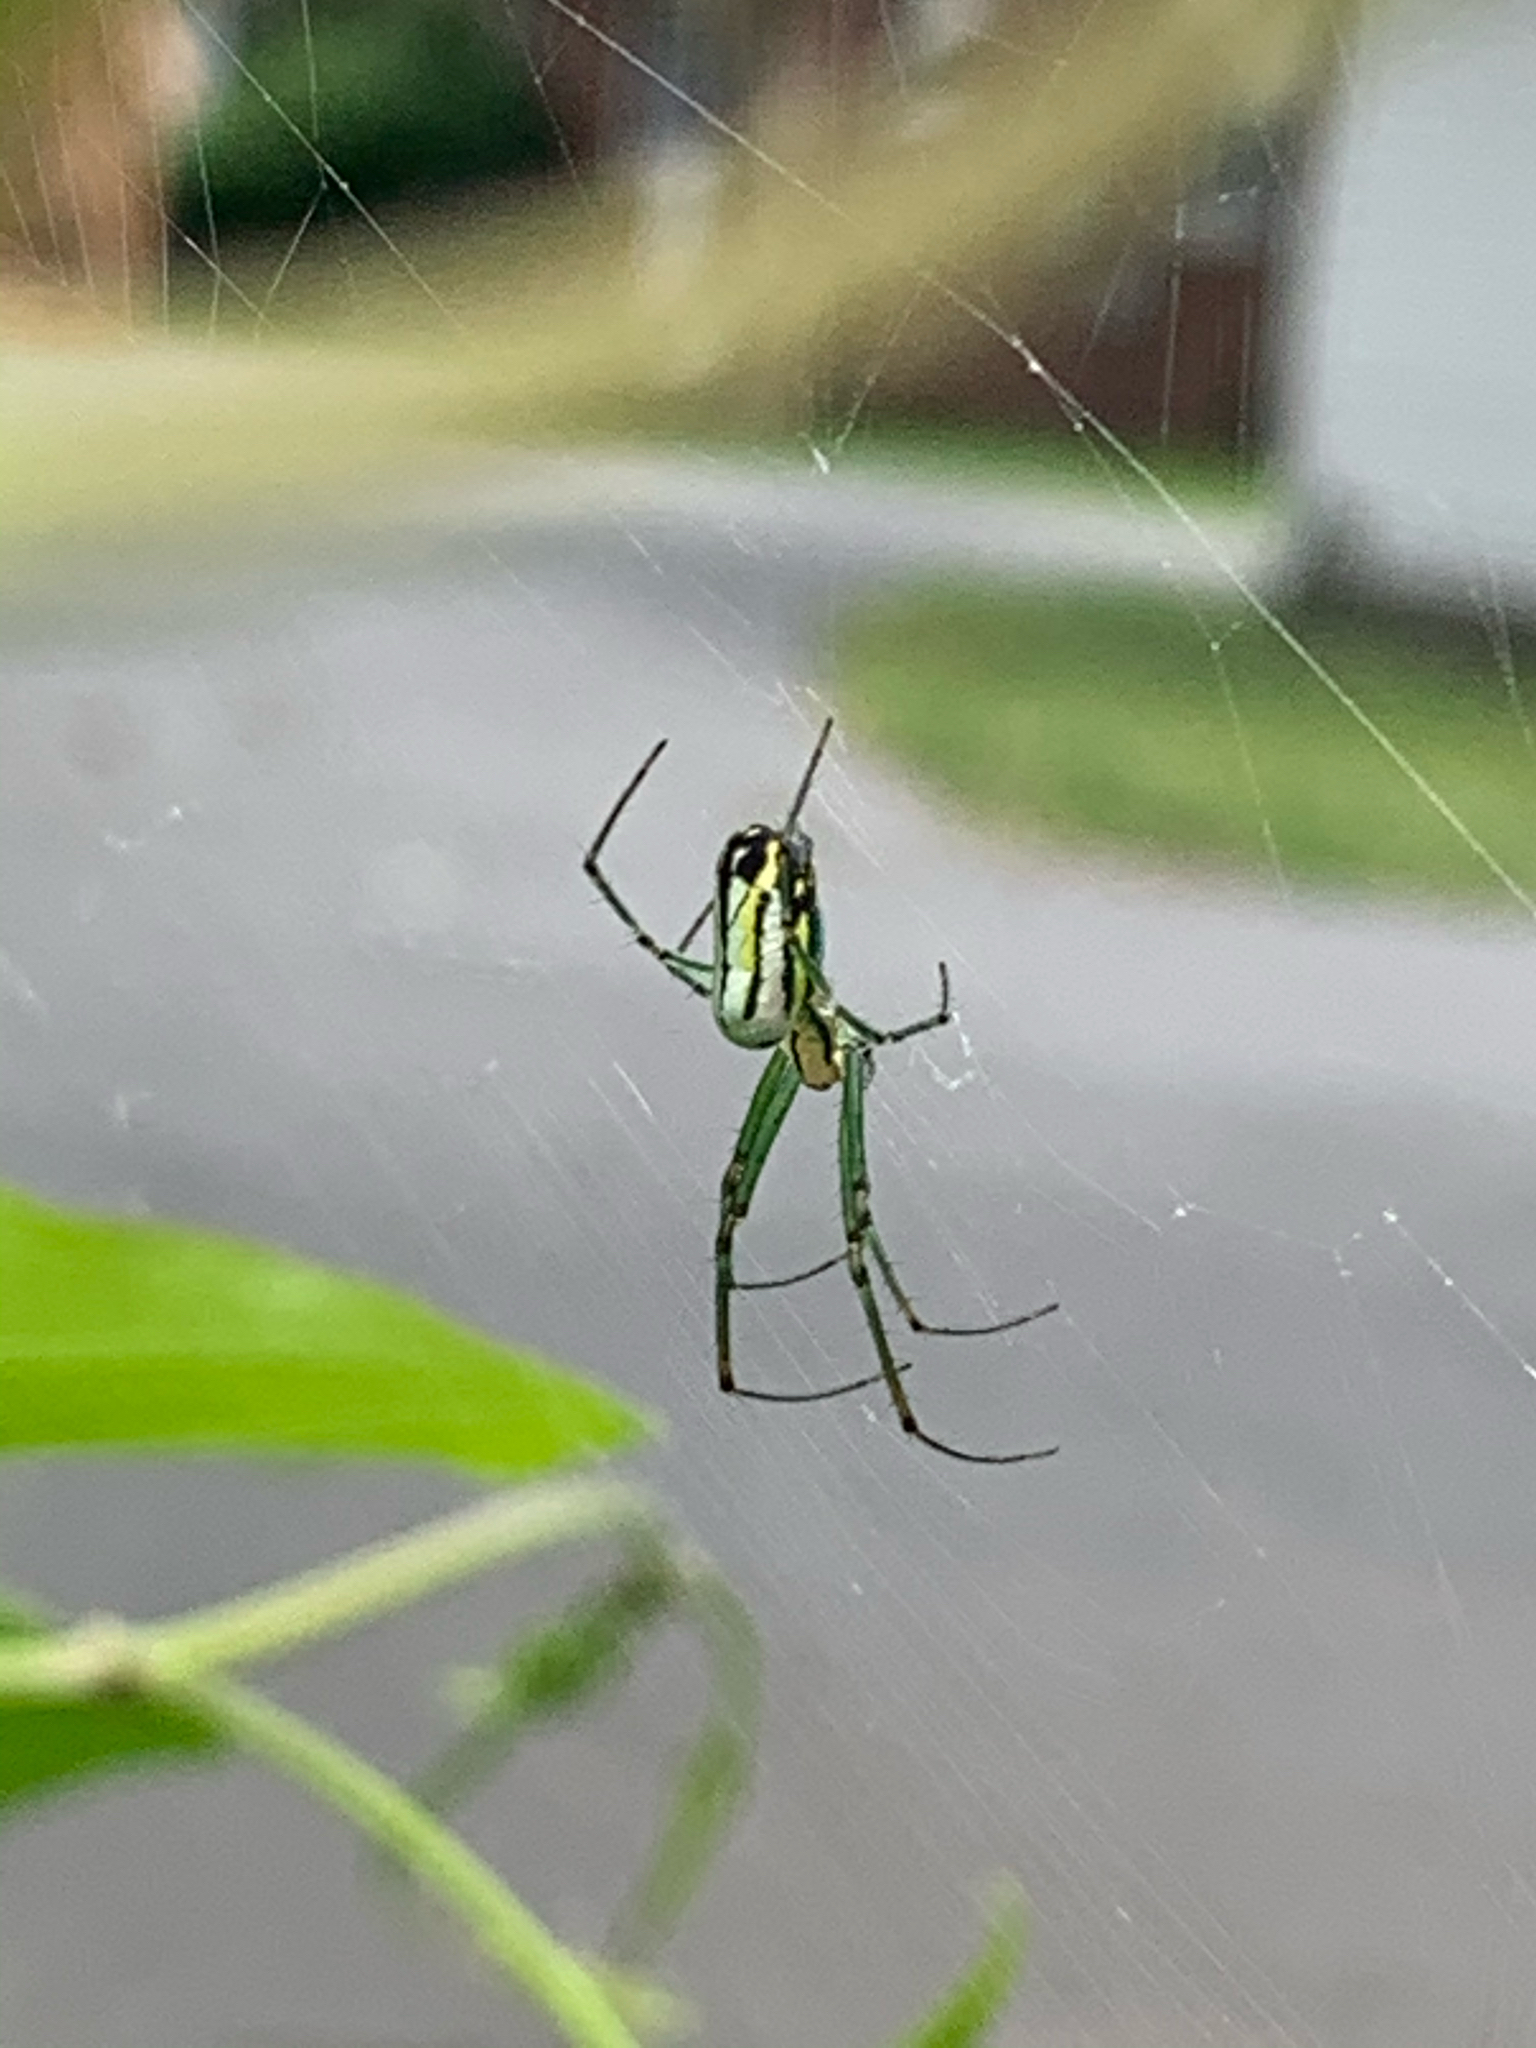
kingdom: Animalia
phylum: Arthropoda
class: Arachnida
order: Araneae
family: Tetragnathidae
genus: Leucauge
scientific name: Leucauge venusta
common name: Longjawed orb weavers
